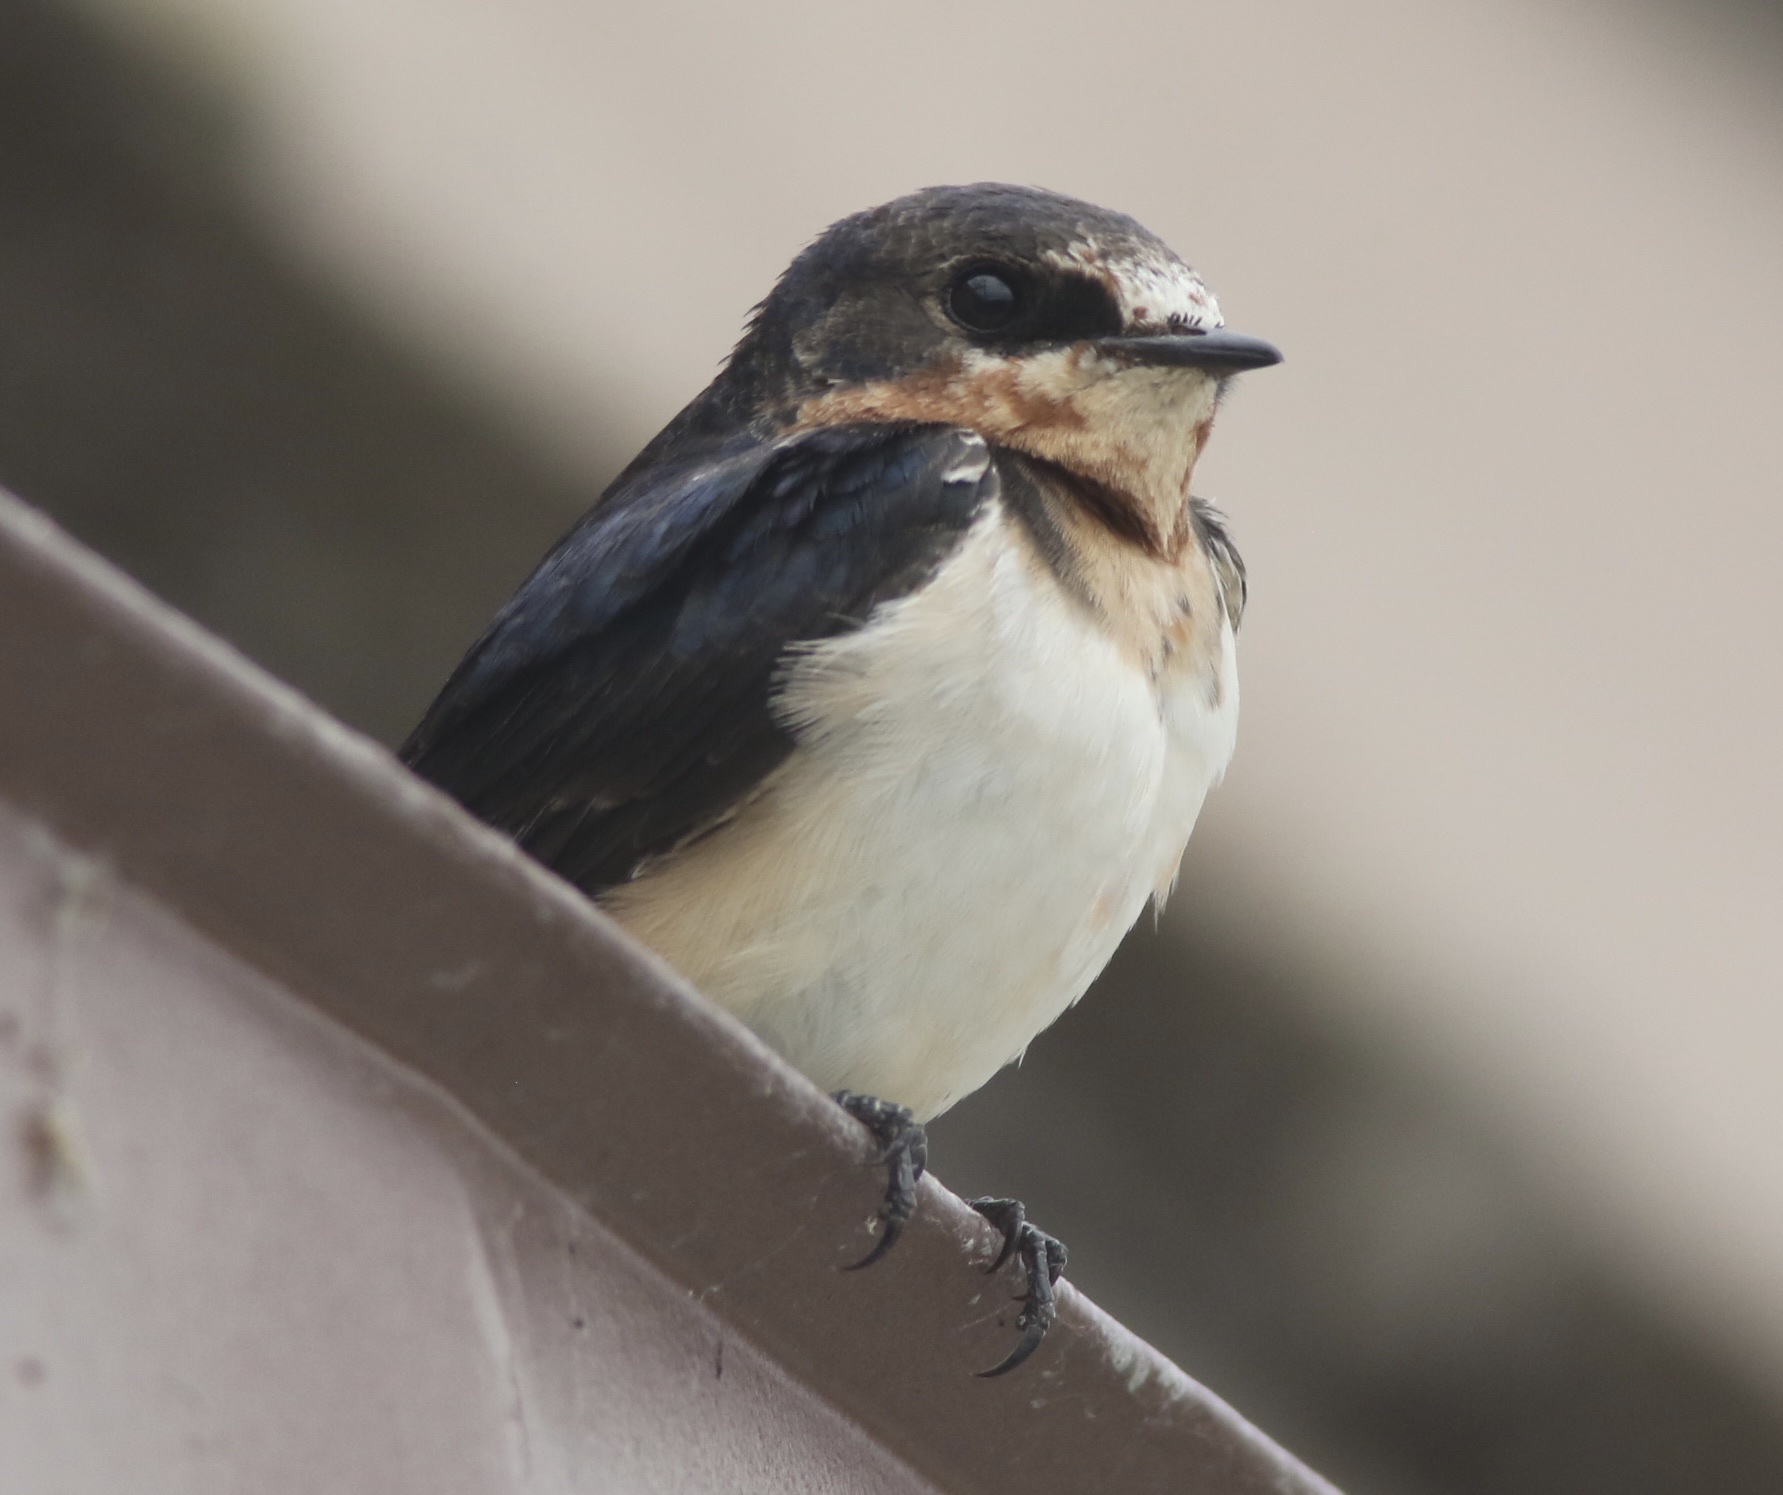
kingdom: Animalia
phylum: Chordata
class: Aves
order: Passeriformes
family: Hirundinidae
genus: Hirundo
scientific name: Hirundo rustica
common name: Barn swallow
